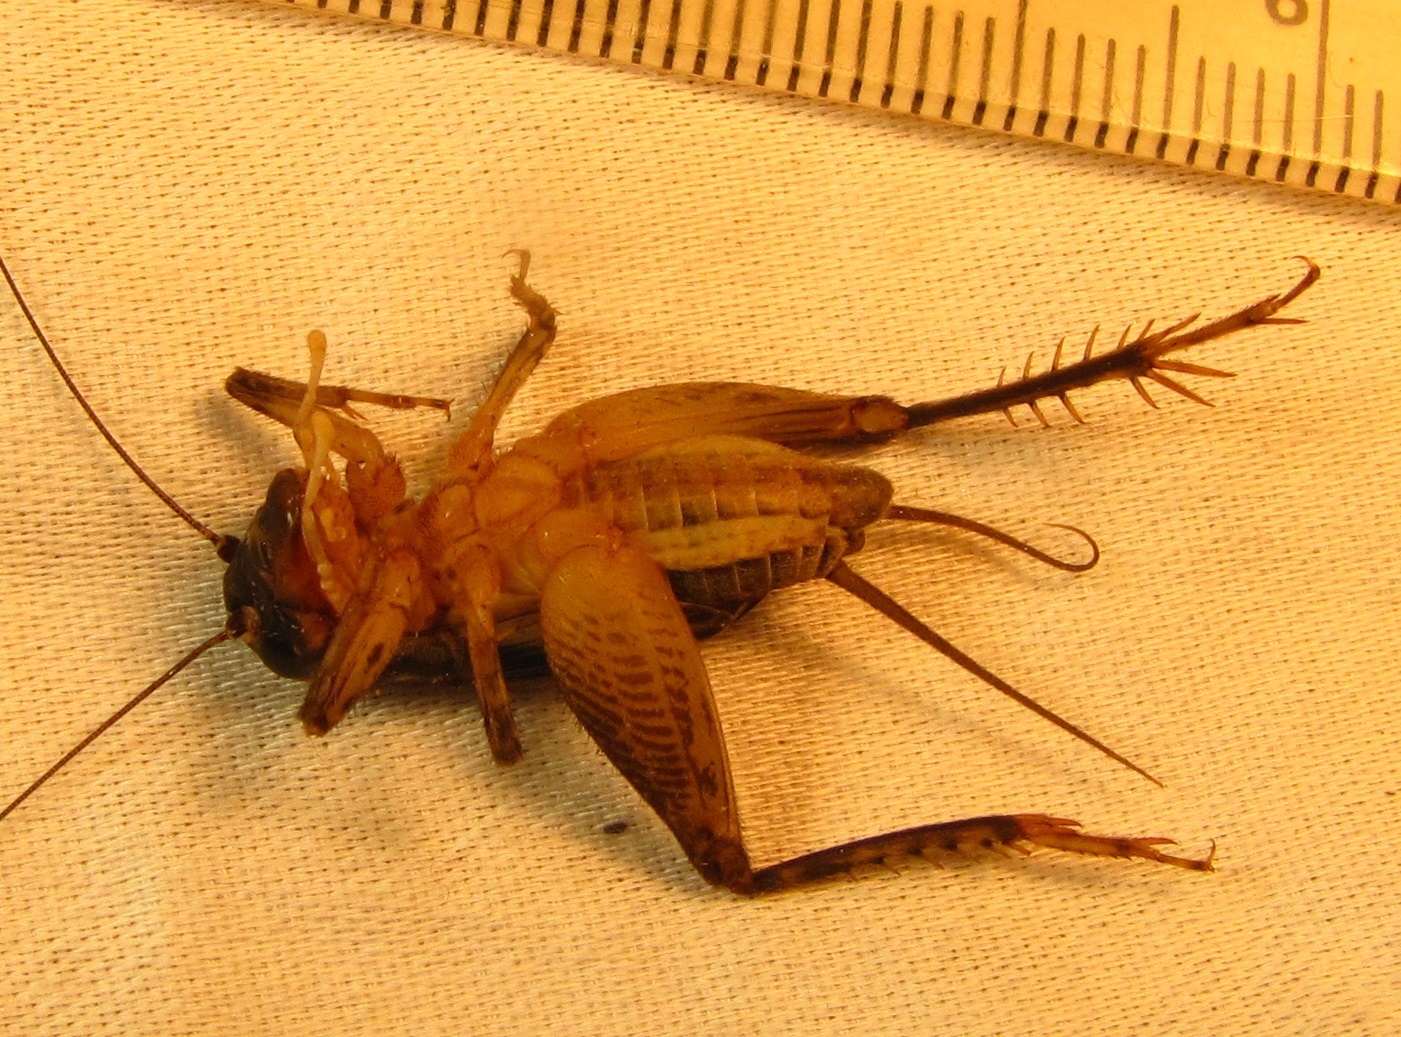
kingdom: Animalia
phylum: Arthropoda
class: Insecta
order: Orthoptera
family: Gryllidae
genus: Velarifictorus
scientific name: Velarifictorus micado
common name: Japanese burrowing cricket
